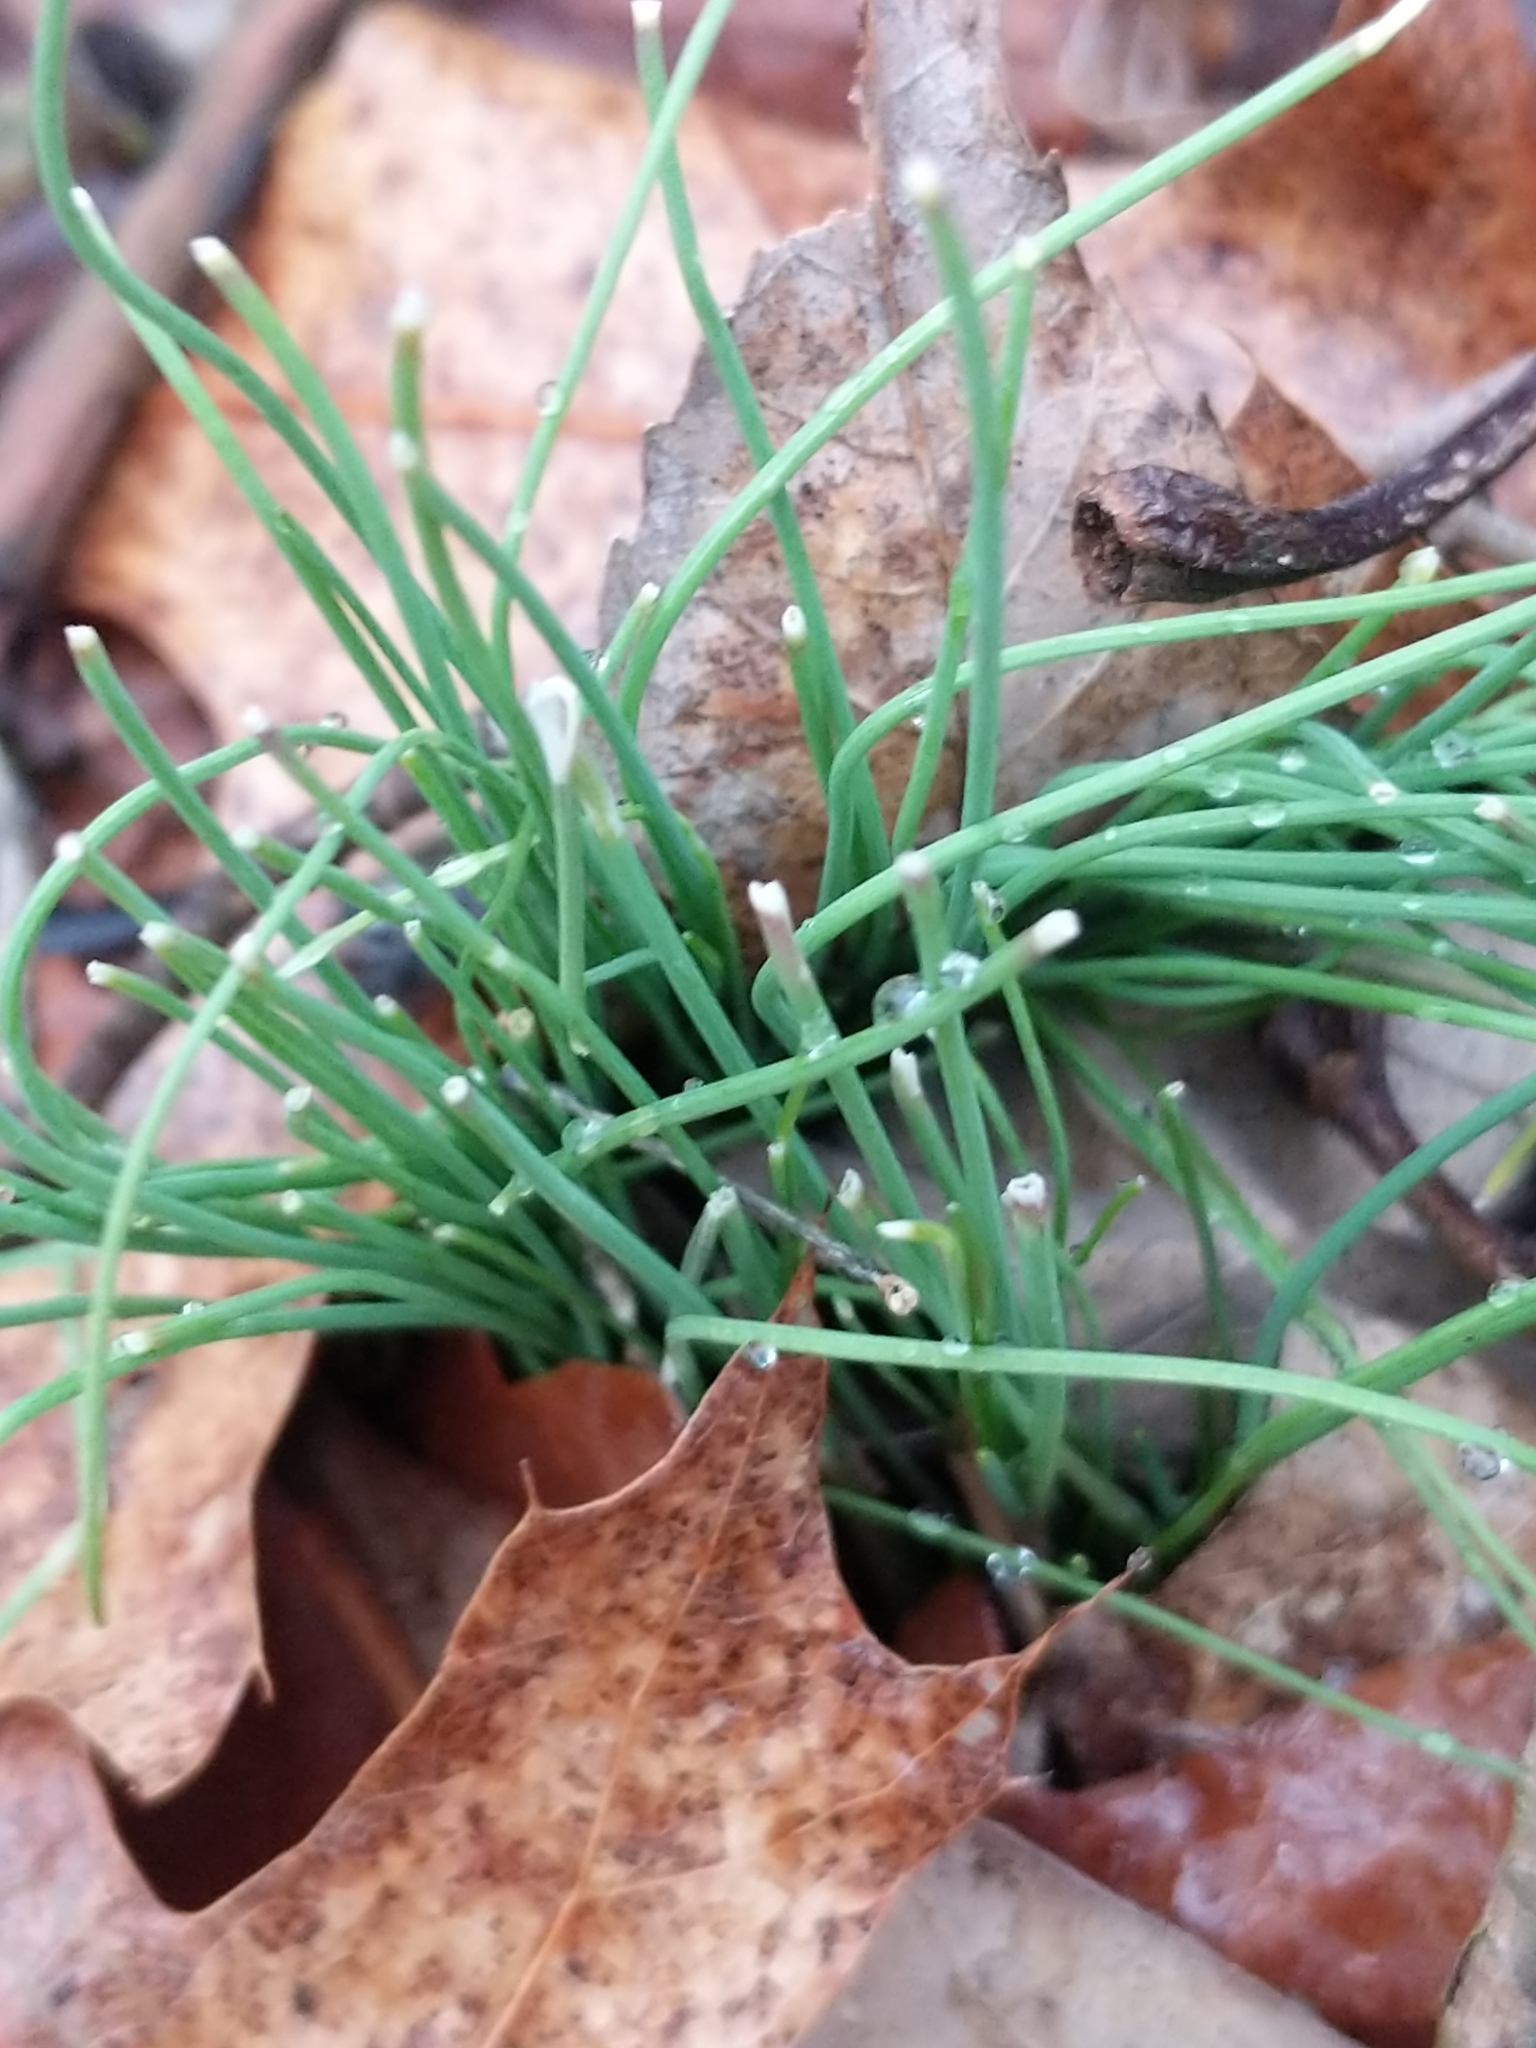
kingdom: Plantae
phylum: Tracheophyta
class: Liliopsida
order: Asparagales
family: Amaryllidaceae
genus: Allium
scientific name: Allium vineale
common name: Crow garlic
